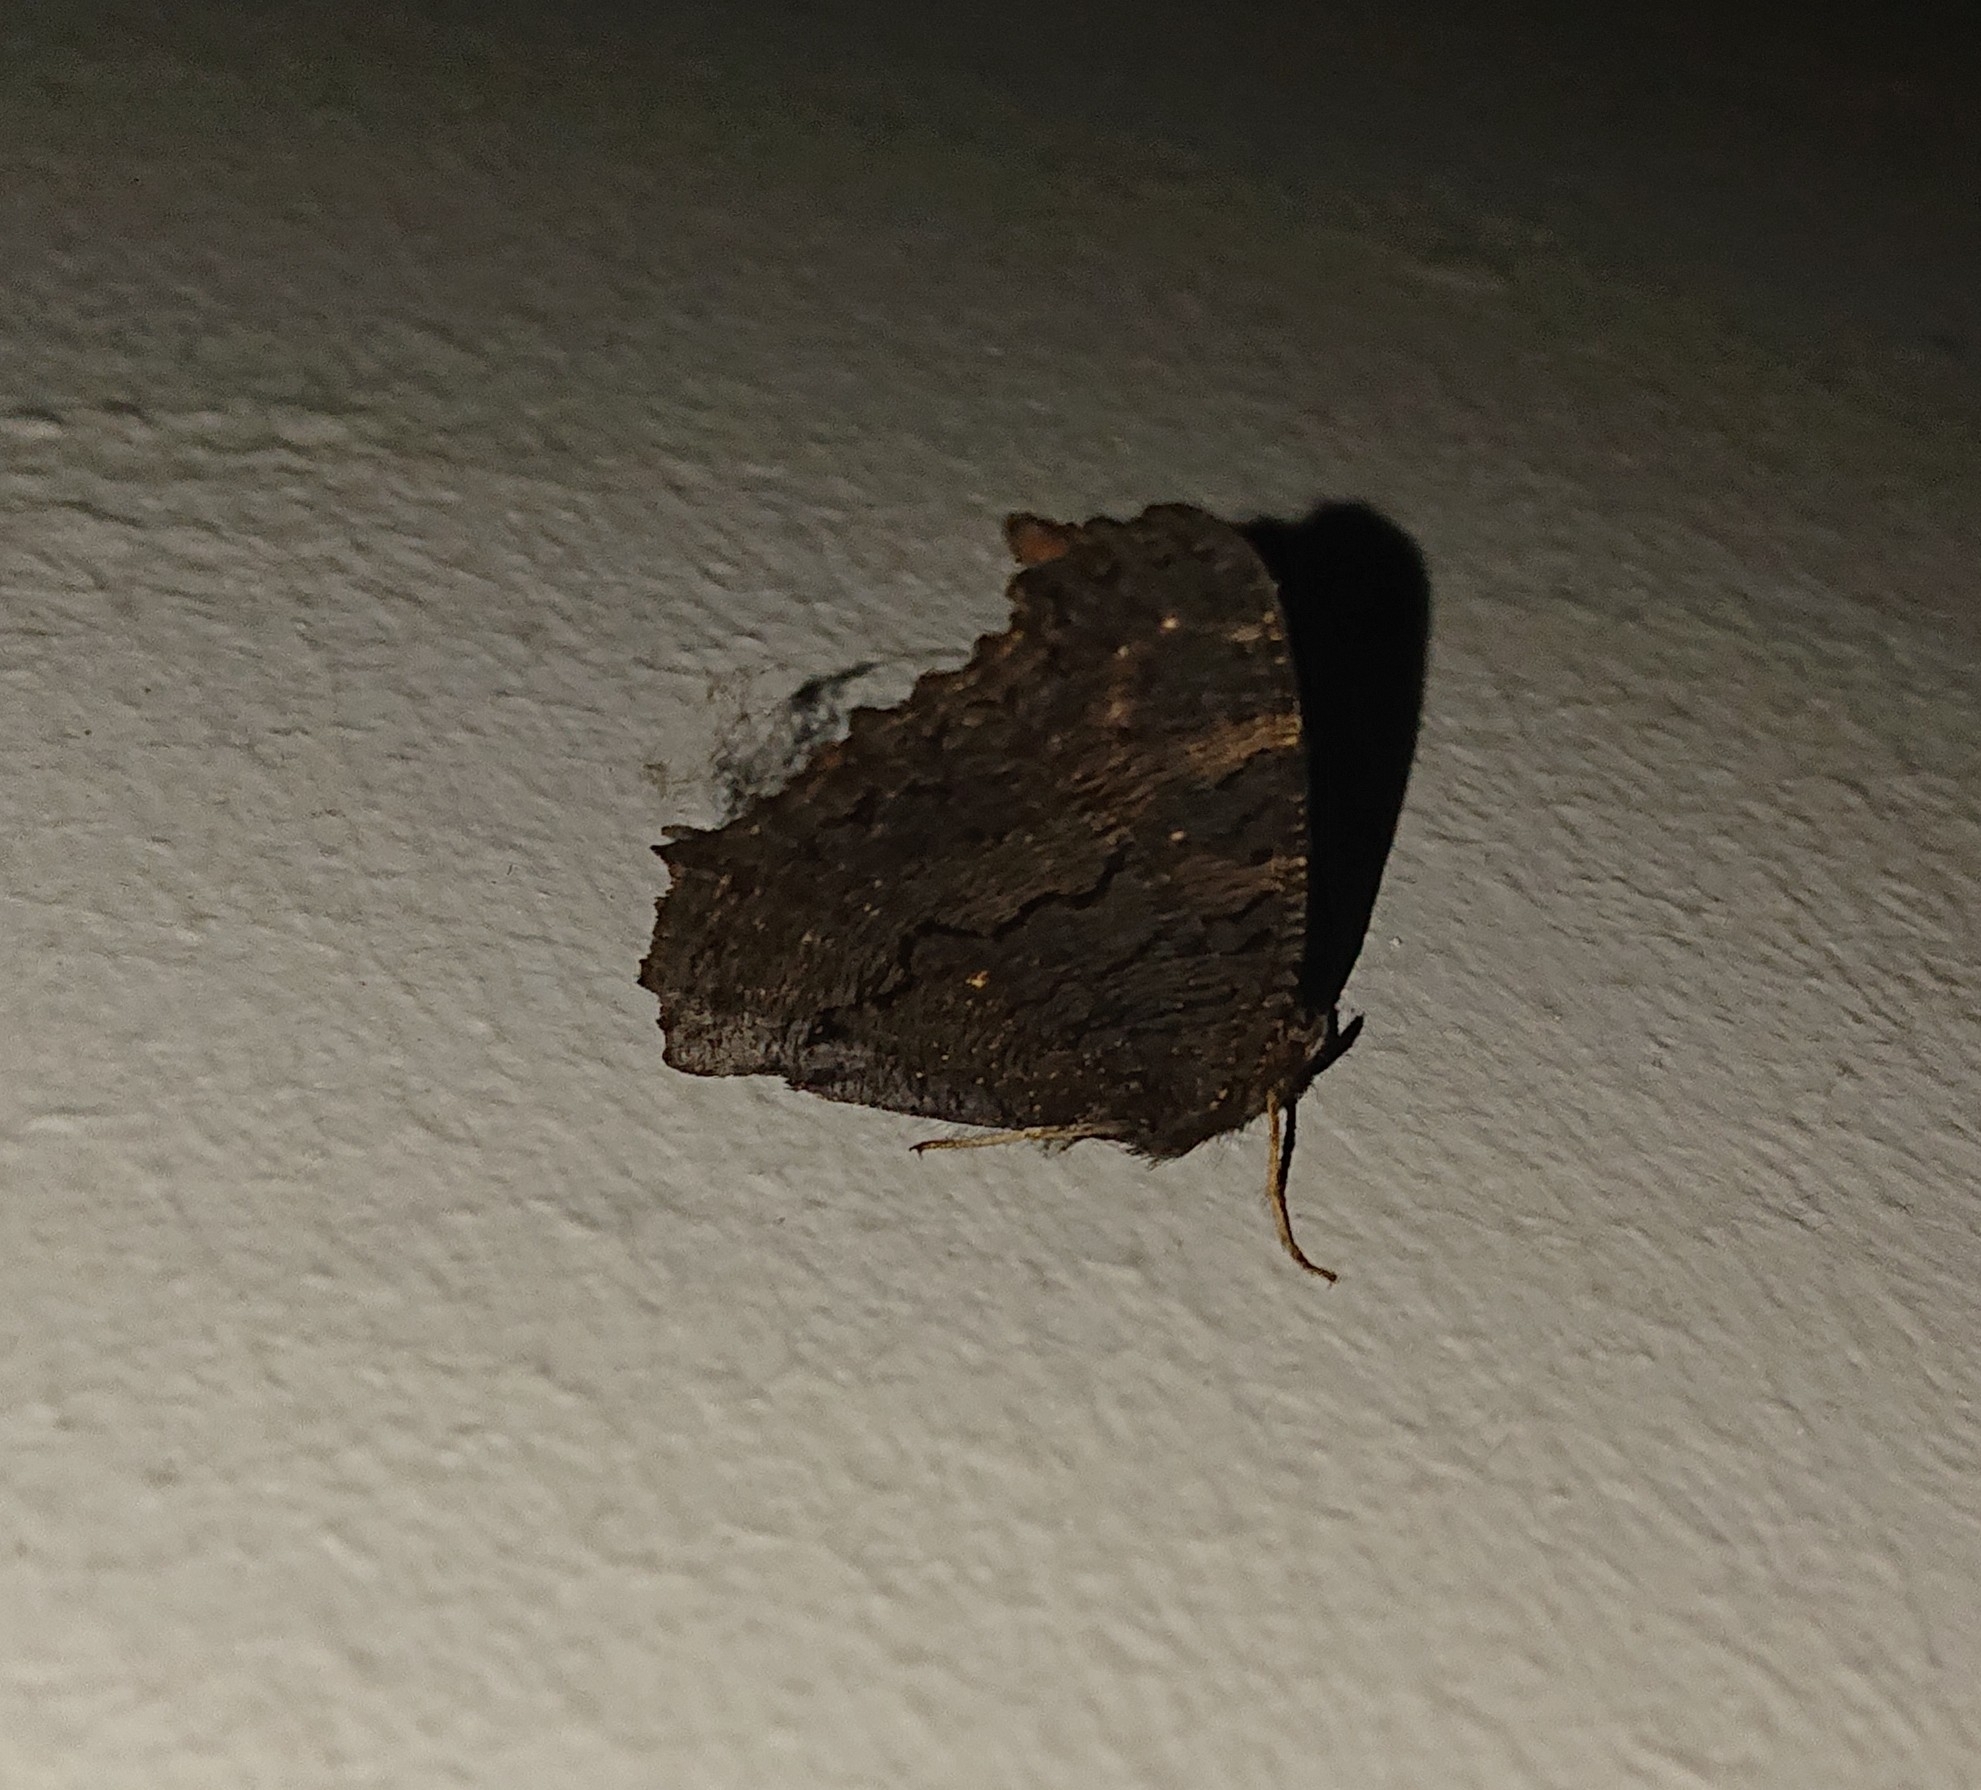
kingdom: Animalia
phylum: Arthropoda
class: Insecta
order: Lepidoptera
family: Nymphalidae
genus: Aglais
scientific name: Aglais io
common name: Peacock
